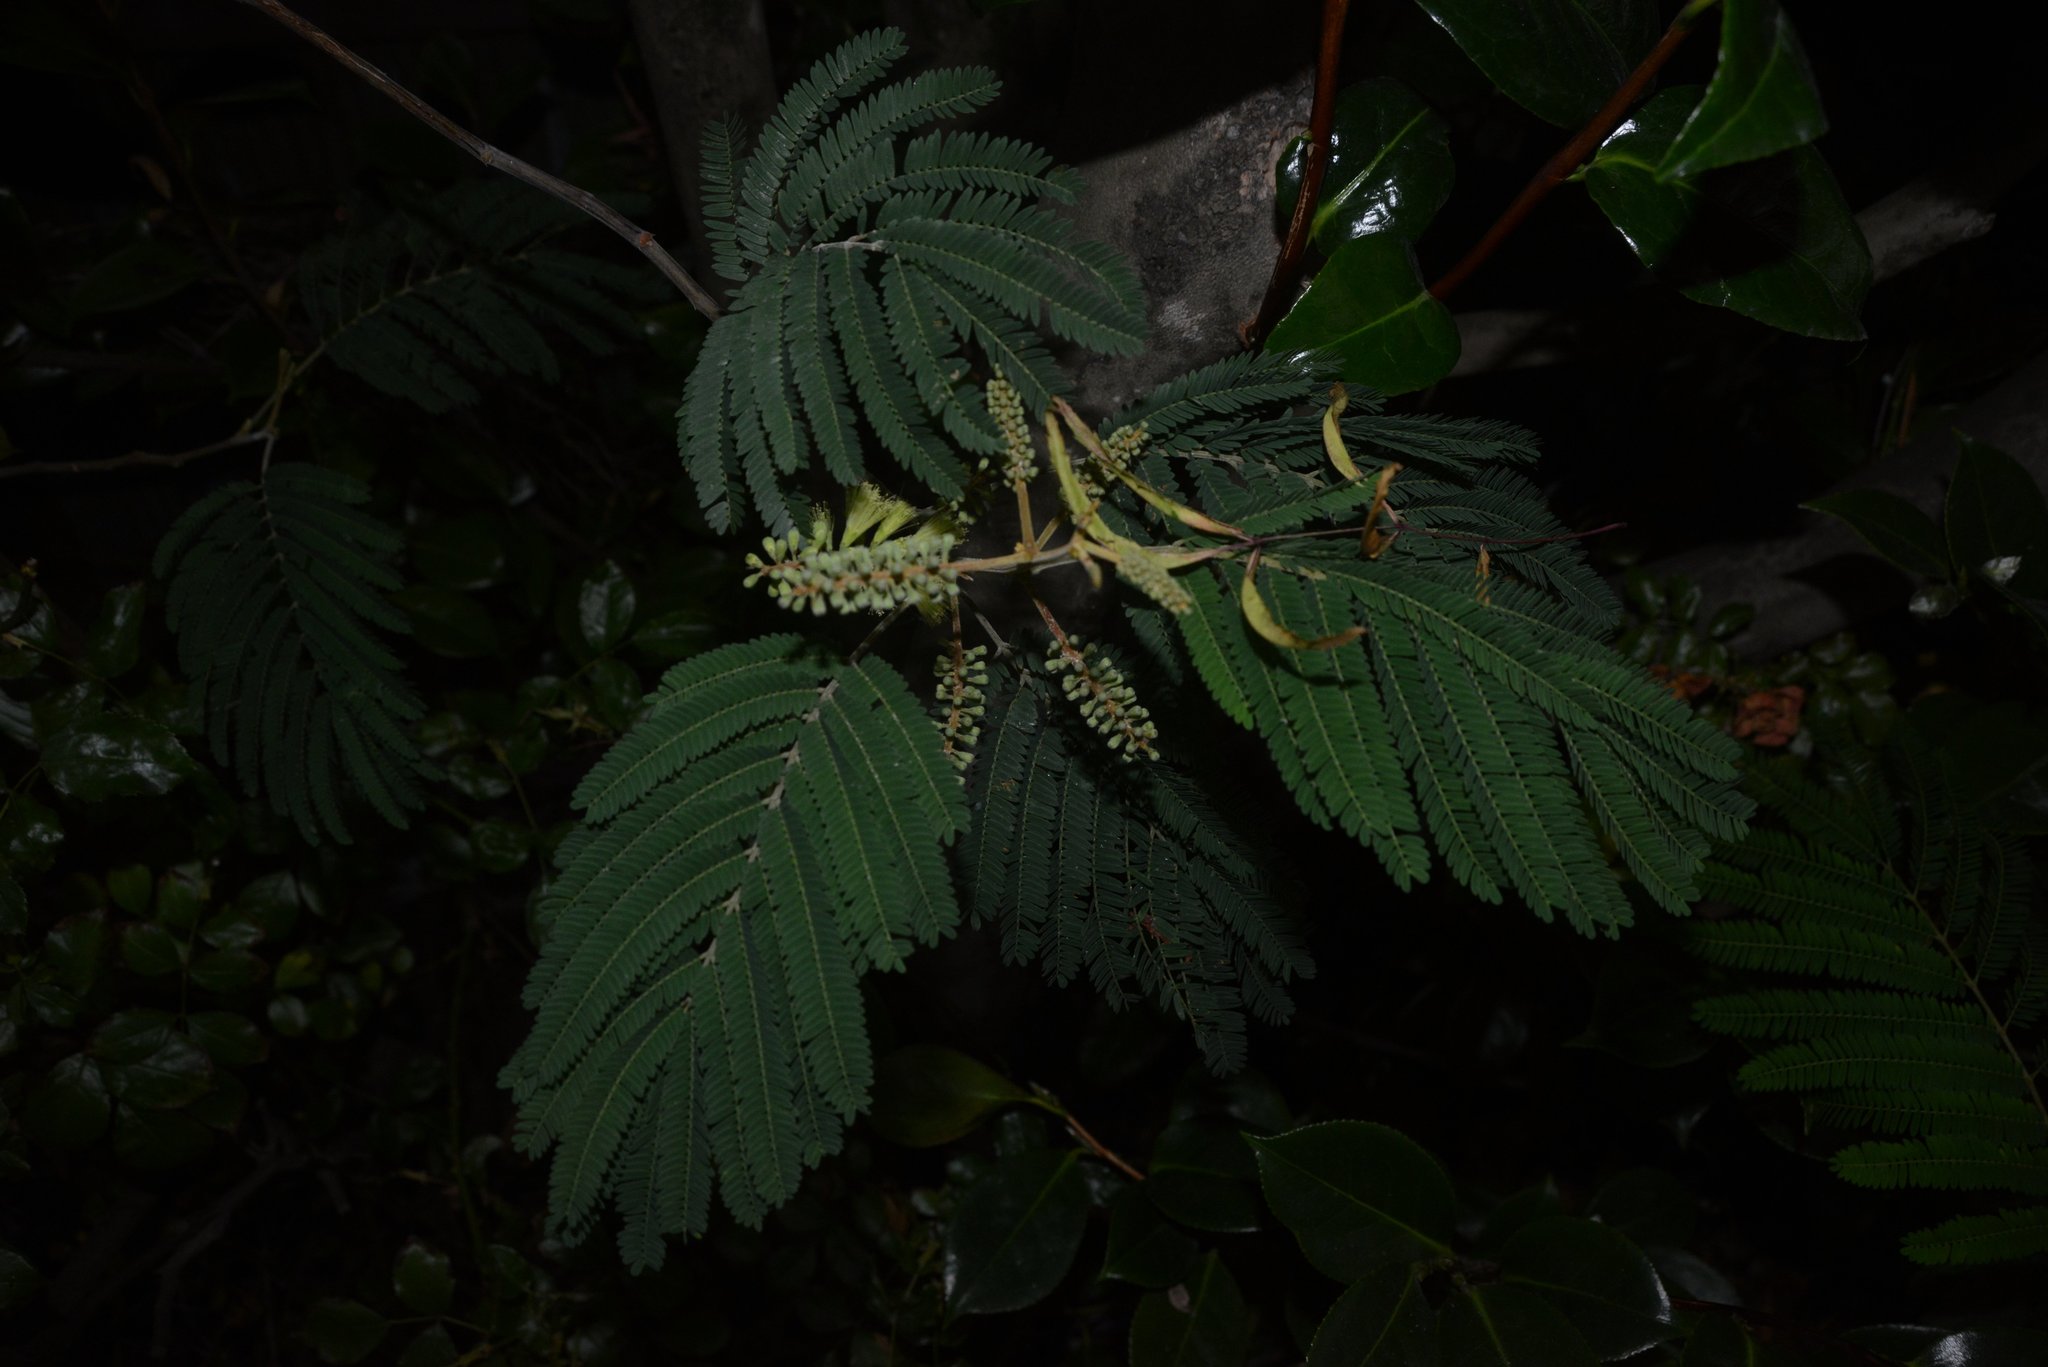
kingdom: Plantae
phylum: Tracheophyta
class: Magnoliopsida
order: Fabales
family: Fabaceae
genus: Paraserianthes
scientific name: Paraserianthes lophantha
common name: Plume albizia
